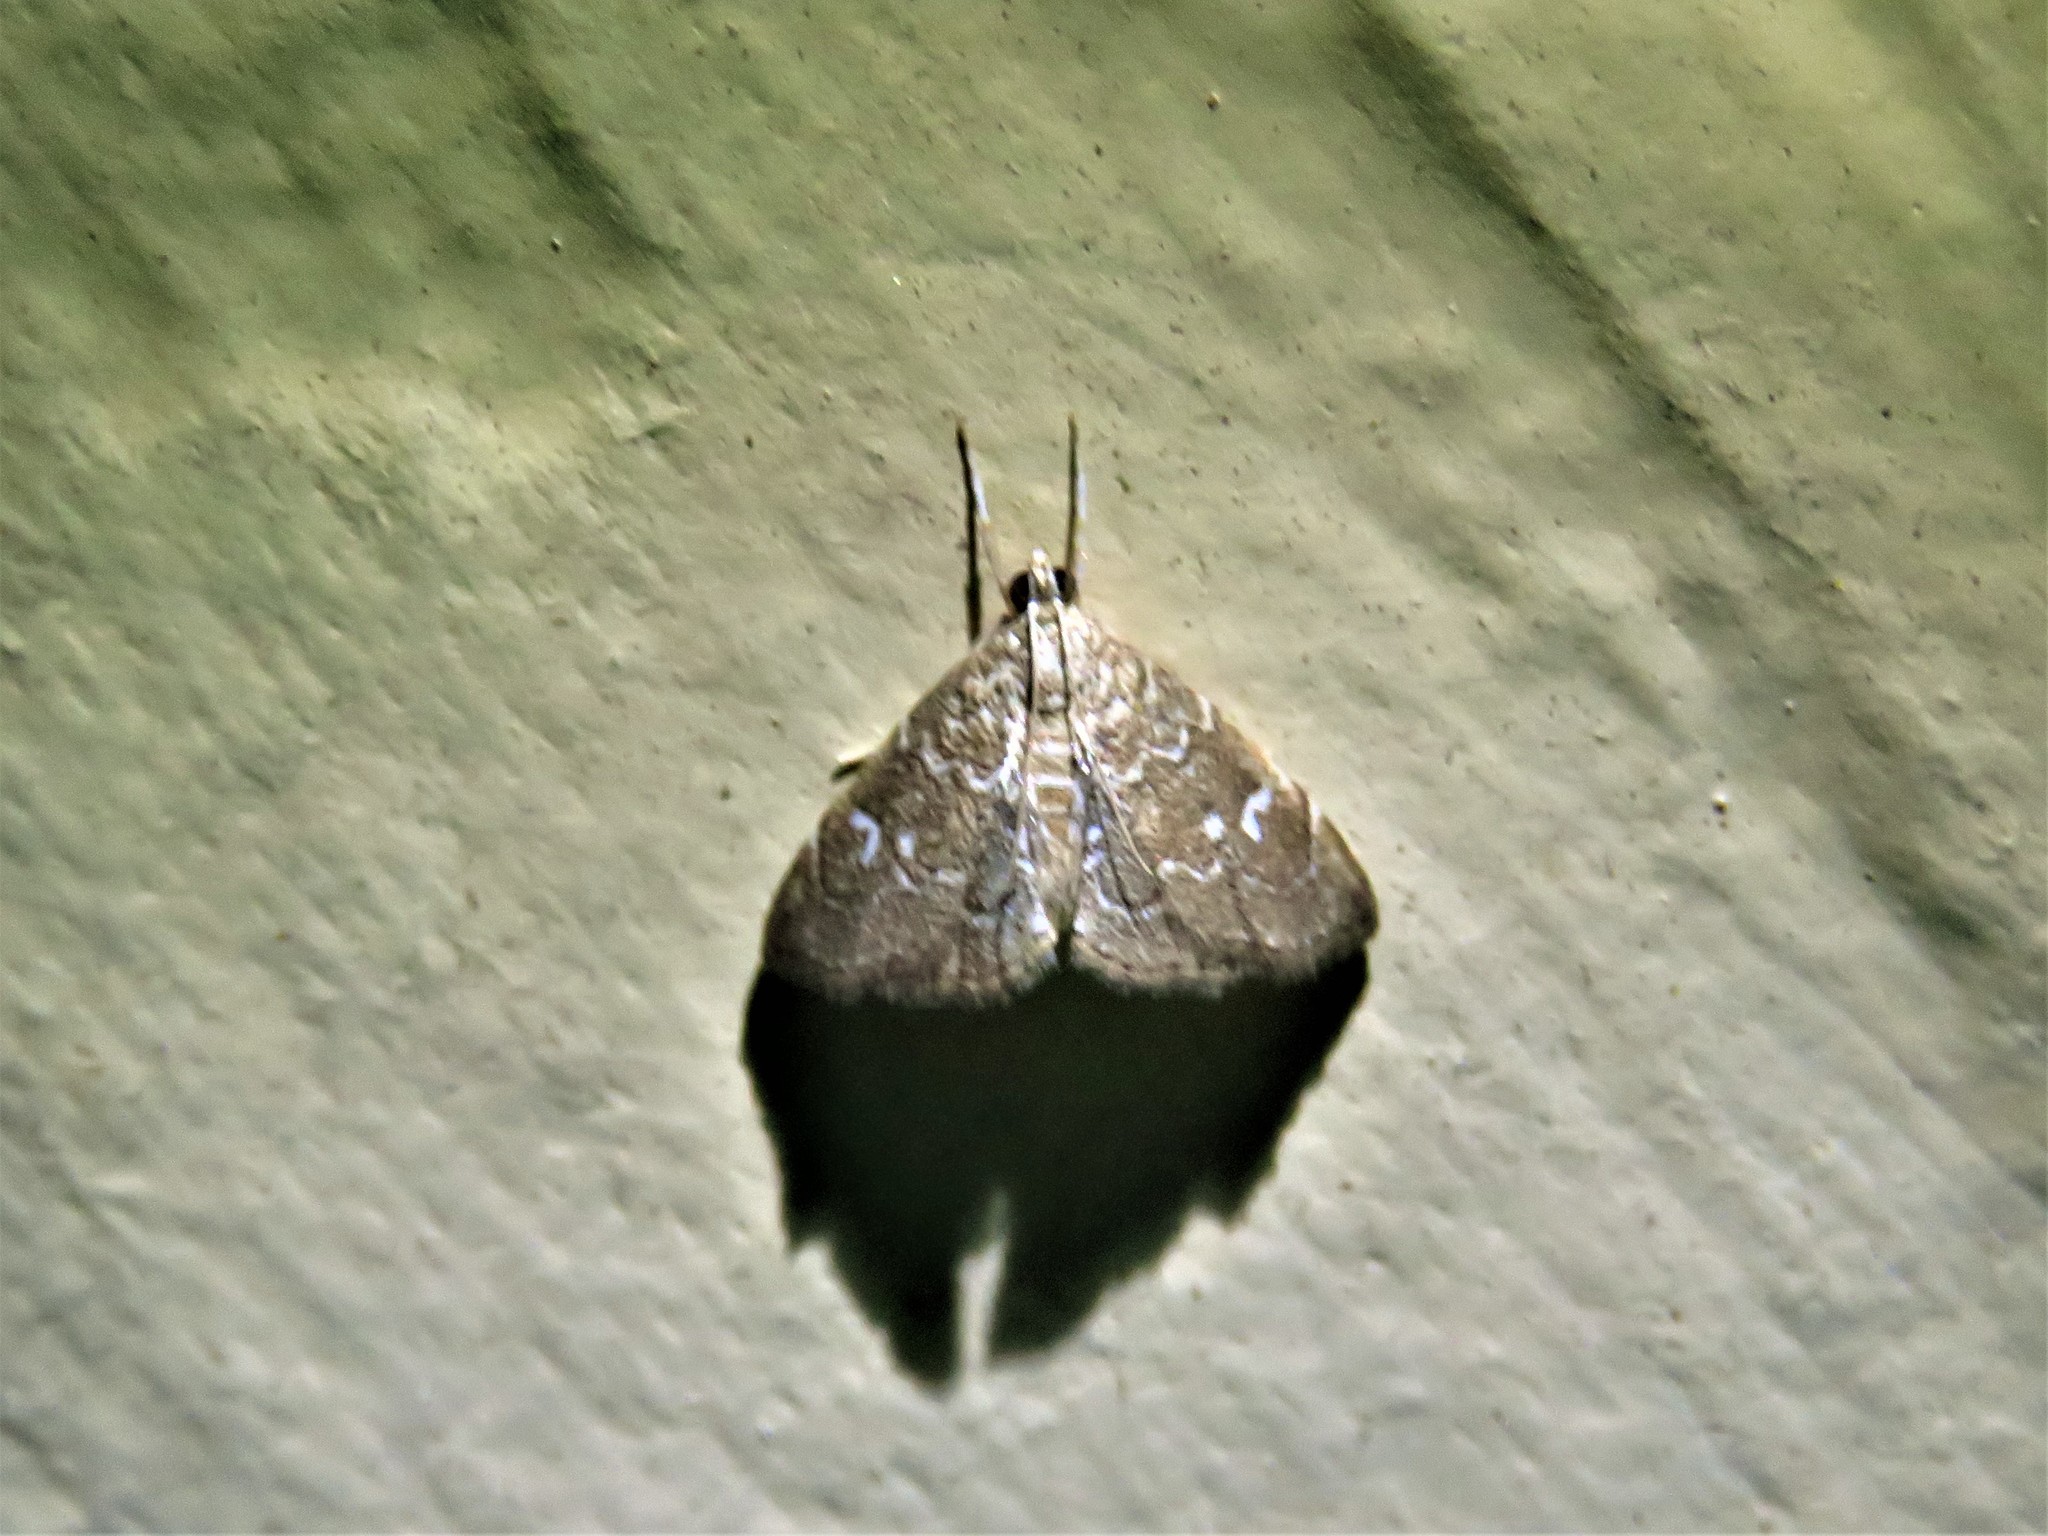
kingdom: Animalia
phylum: Arthropoda
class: Insecta
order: Lepidoptera
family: Crambidae
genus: Nephrogramma
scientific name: Nephrogramma reniculalis
